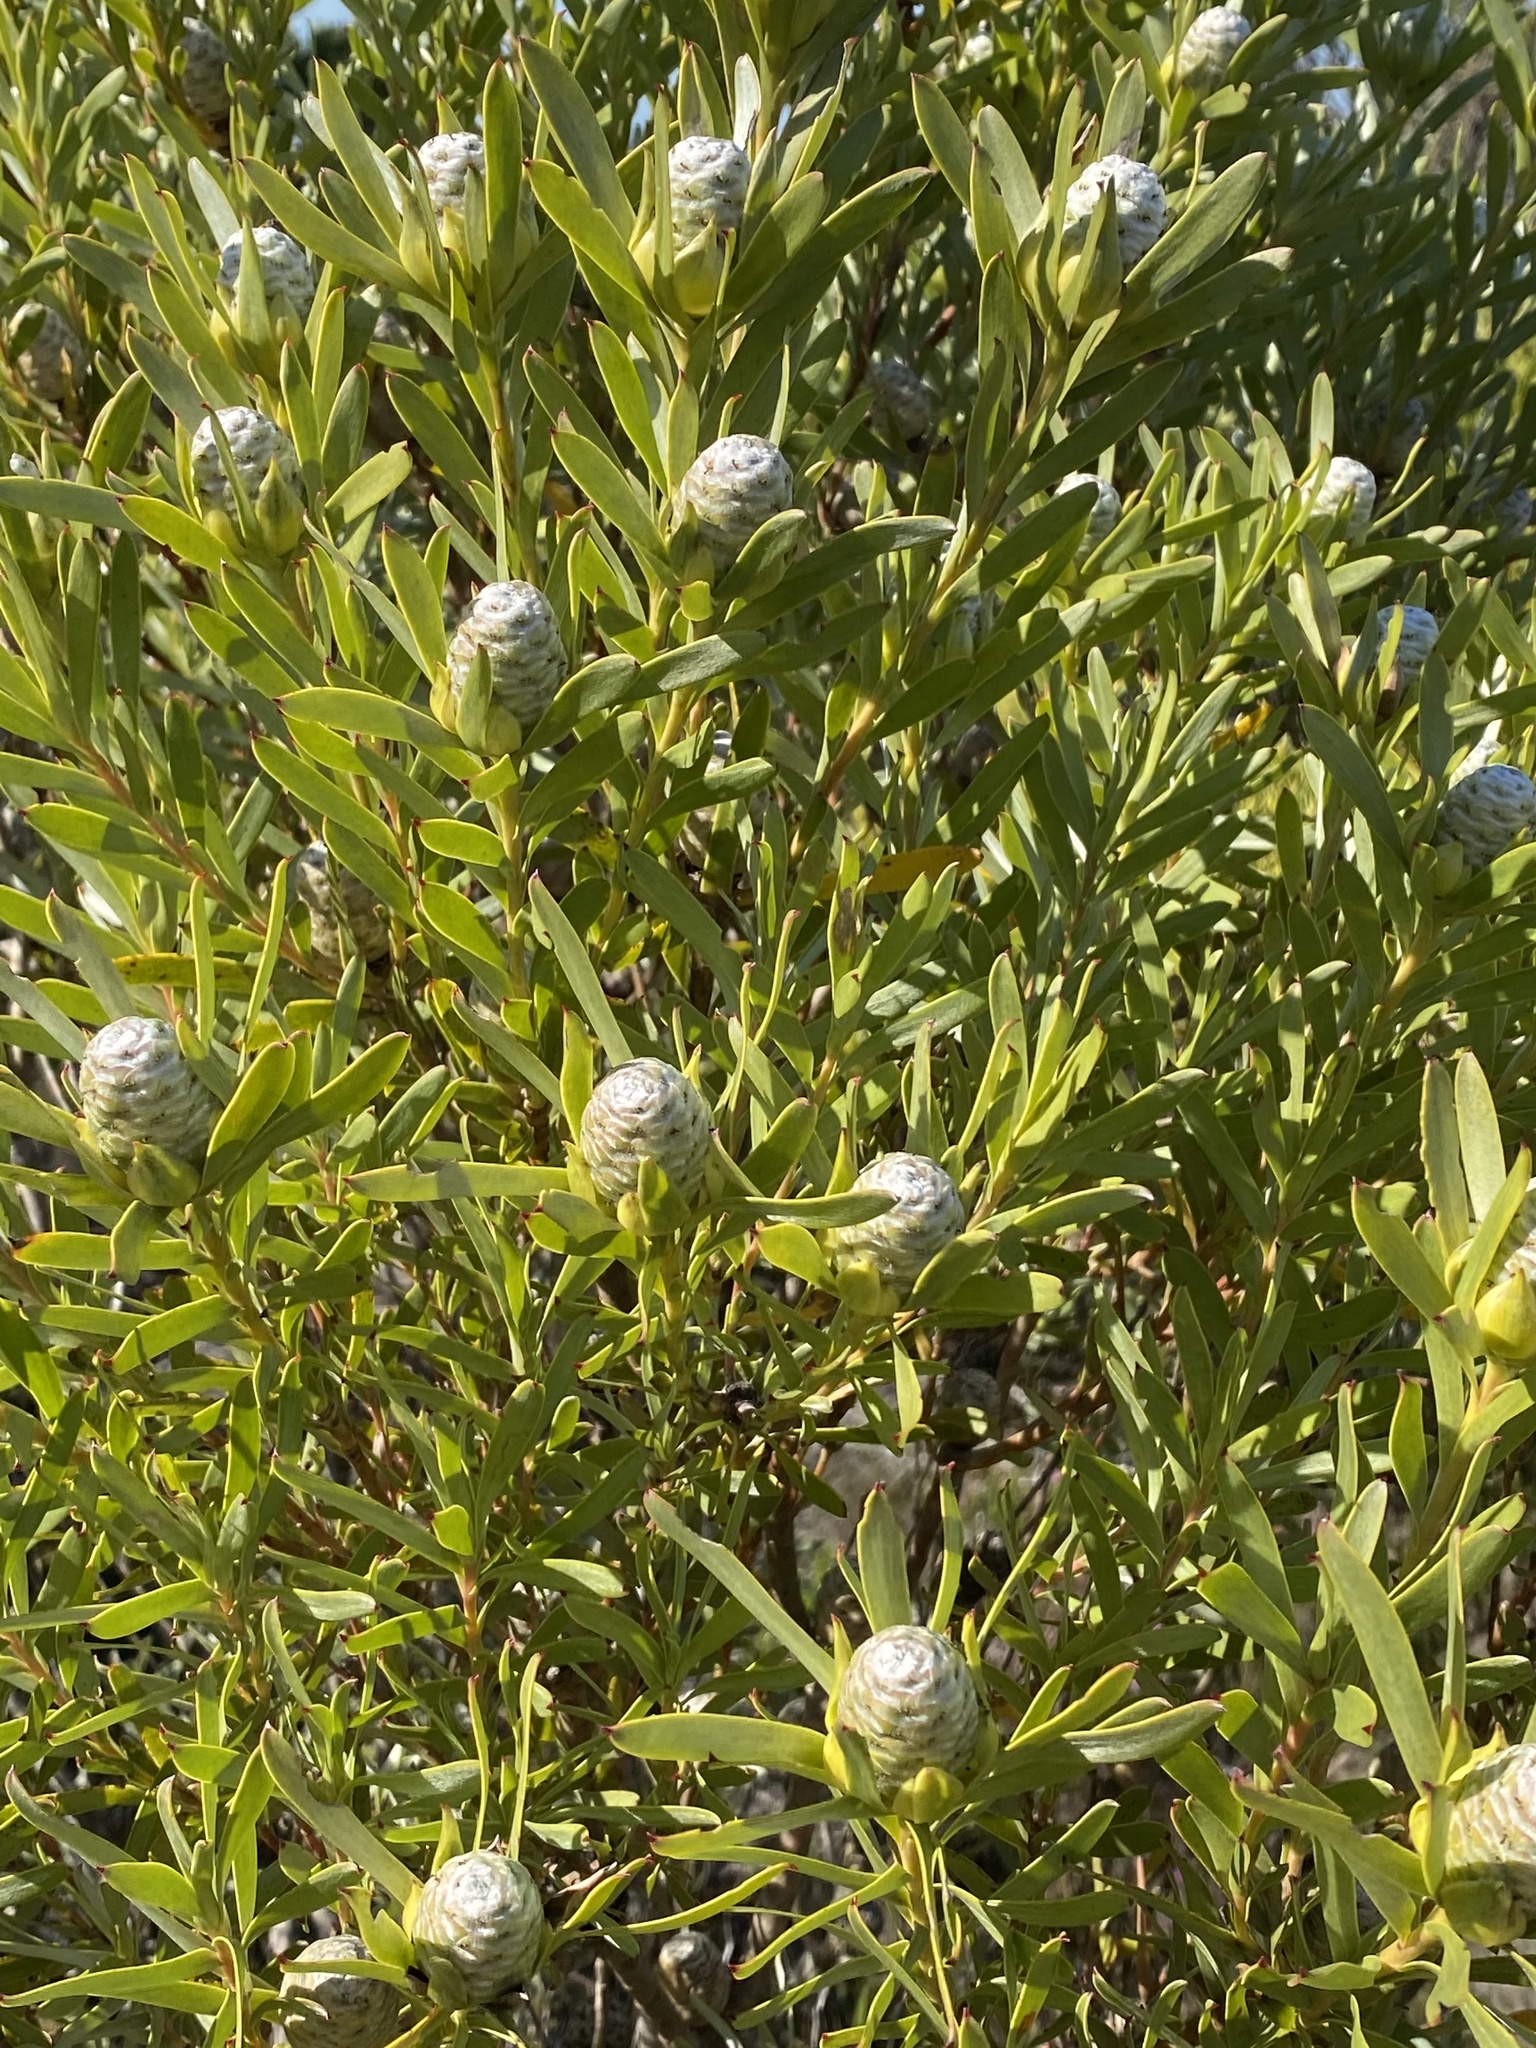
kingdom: Plantae
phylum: Tracheophyta
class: Magnoliopsida
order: Proteales
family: Proteaceae
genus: Leucadendron
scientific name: Leucadendron meridianum
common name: Limestone conebush
